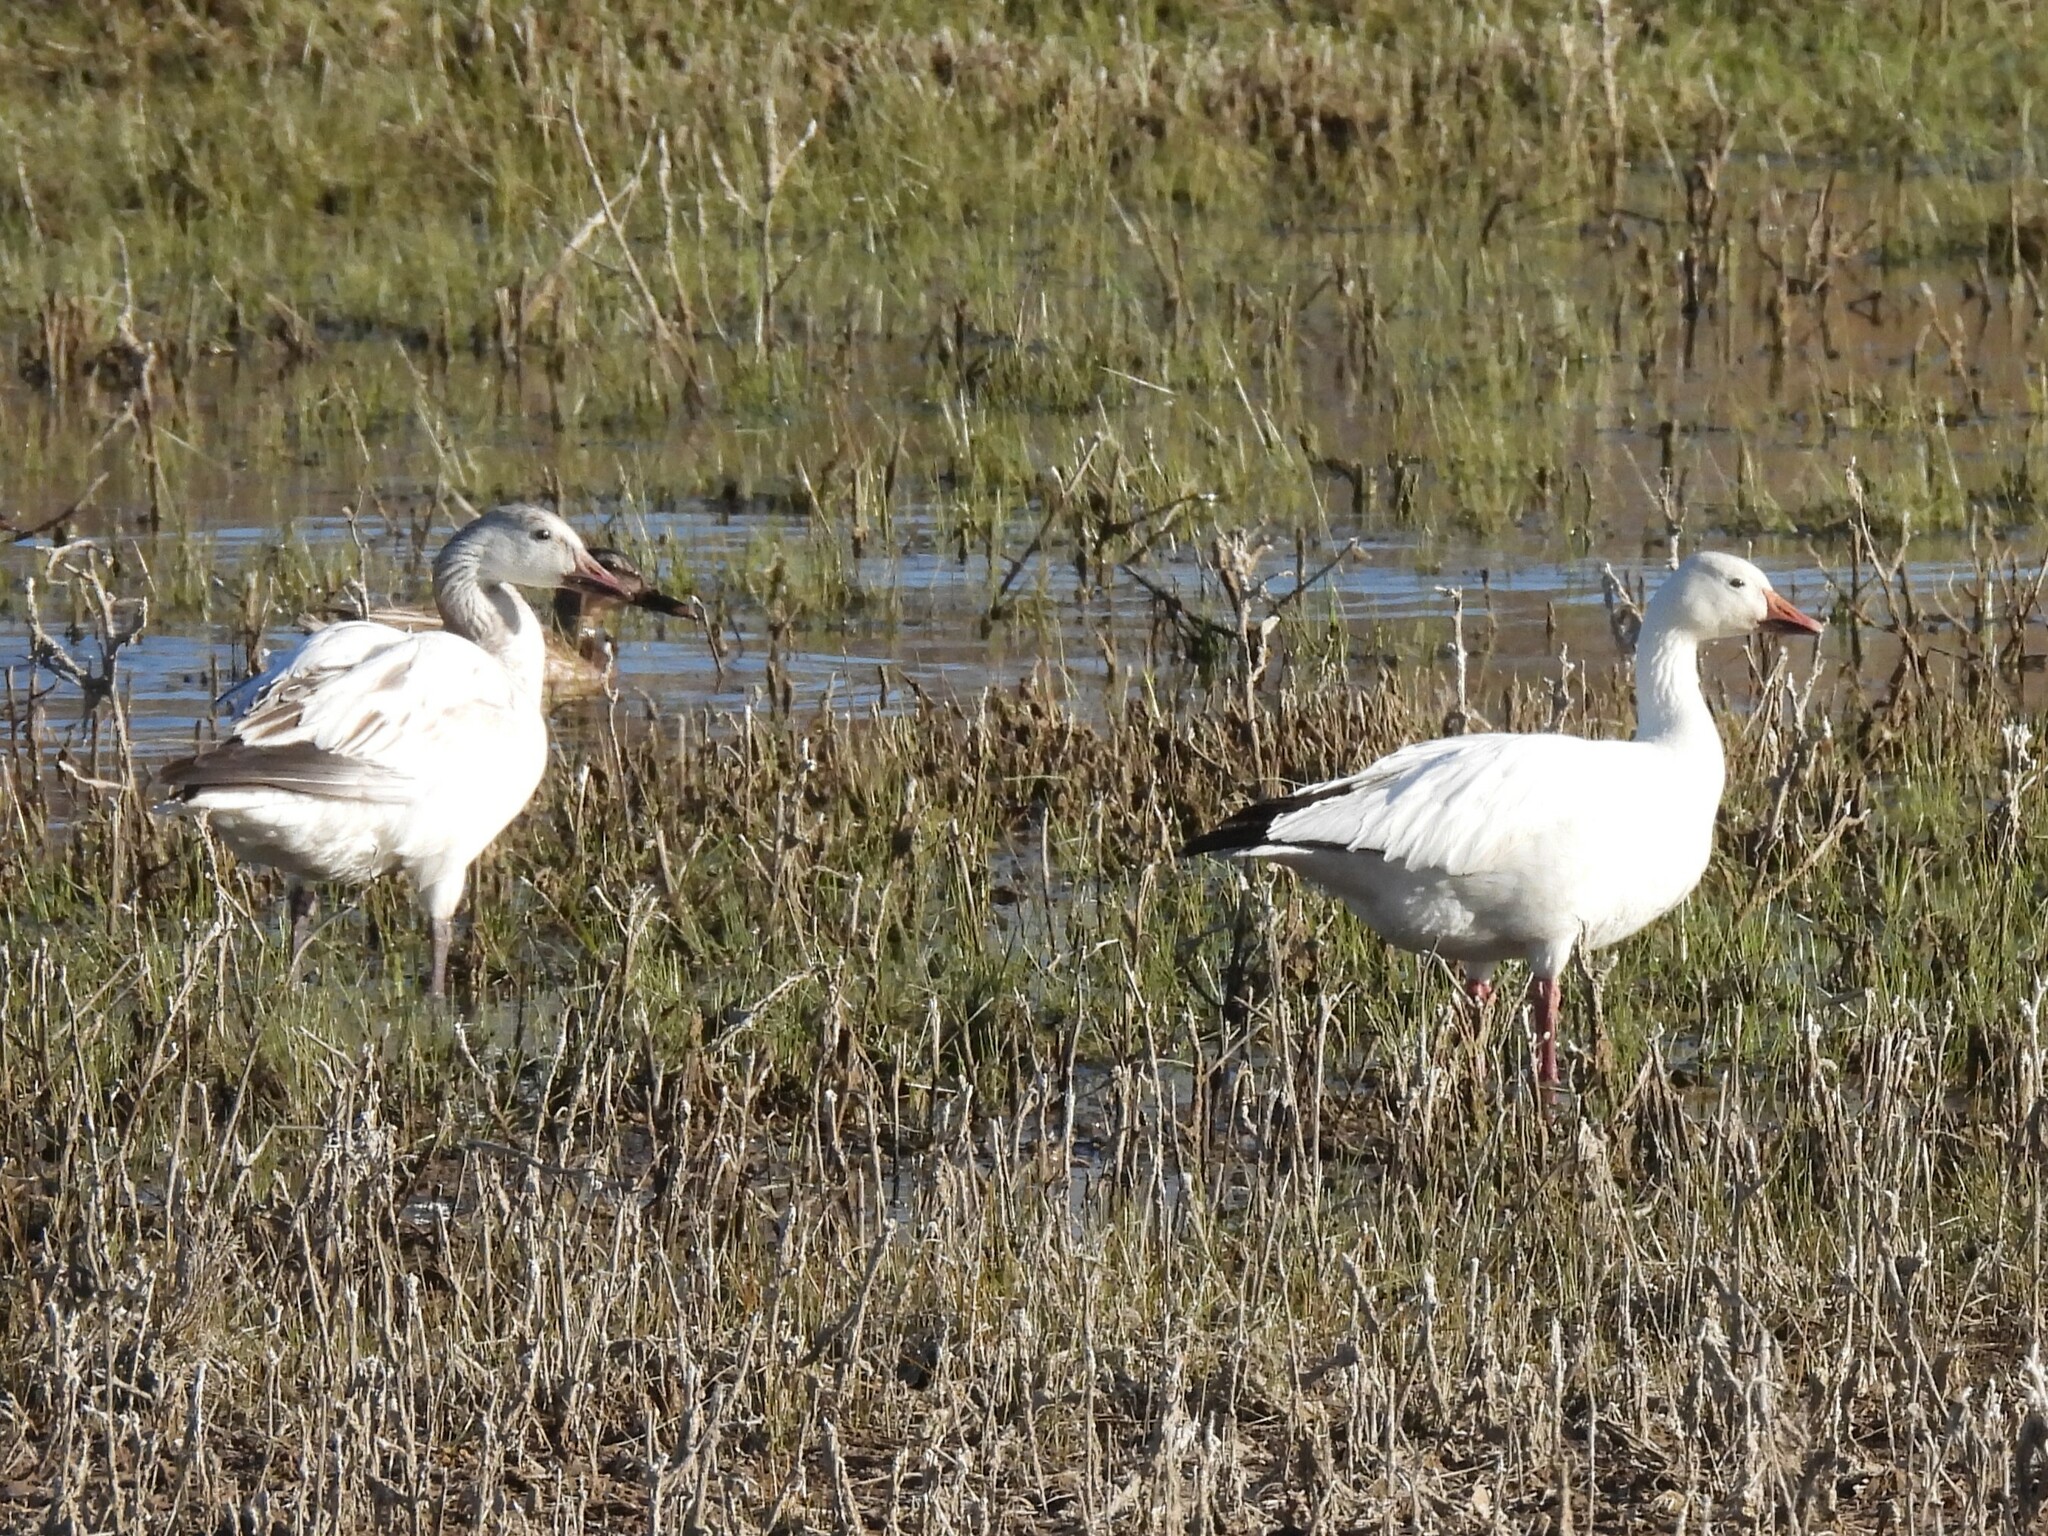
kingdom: Animalia
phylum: Chordata
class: Aves
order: Anseriformes
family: Anatidae
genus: Anser
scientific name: Anser caerulescens
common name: Snow goose
